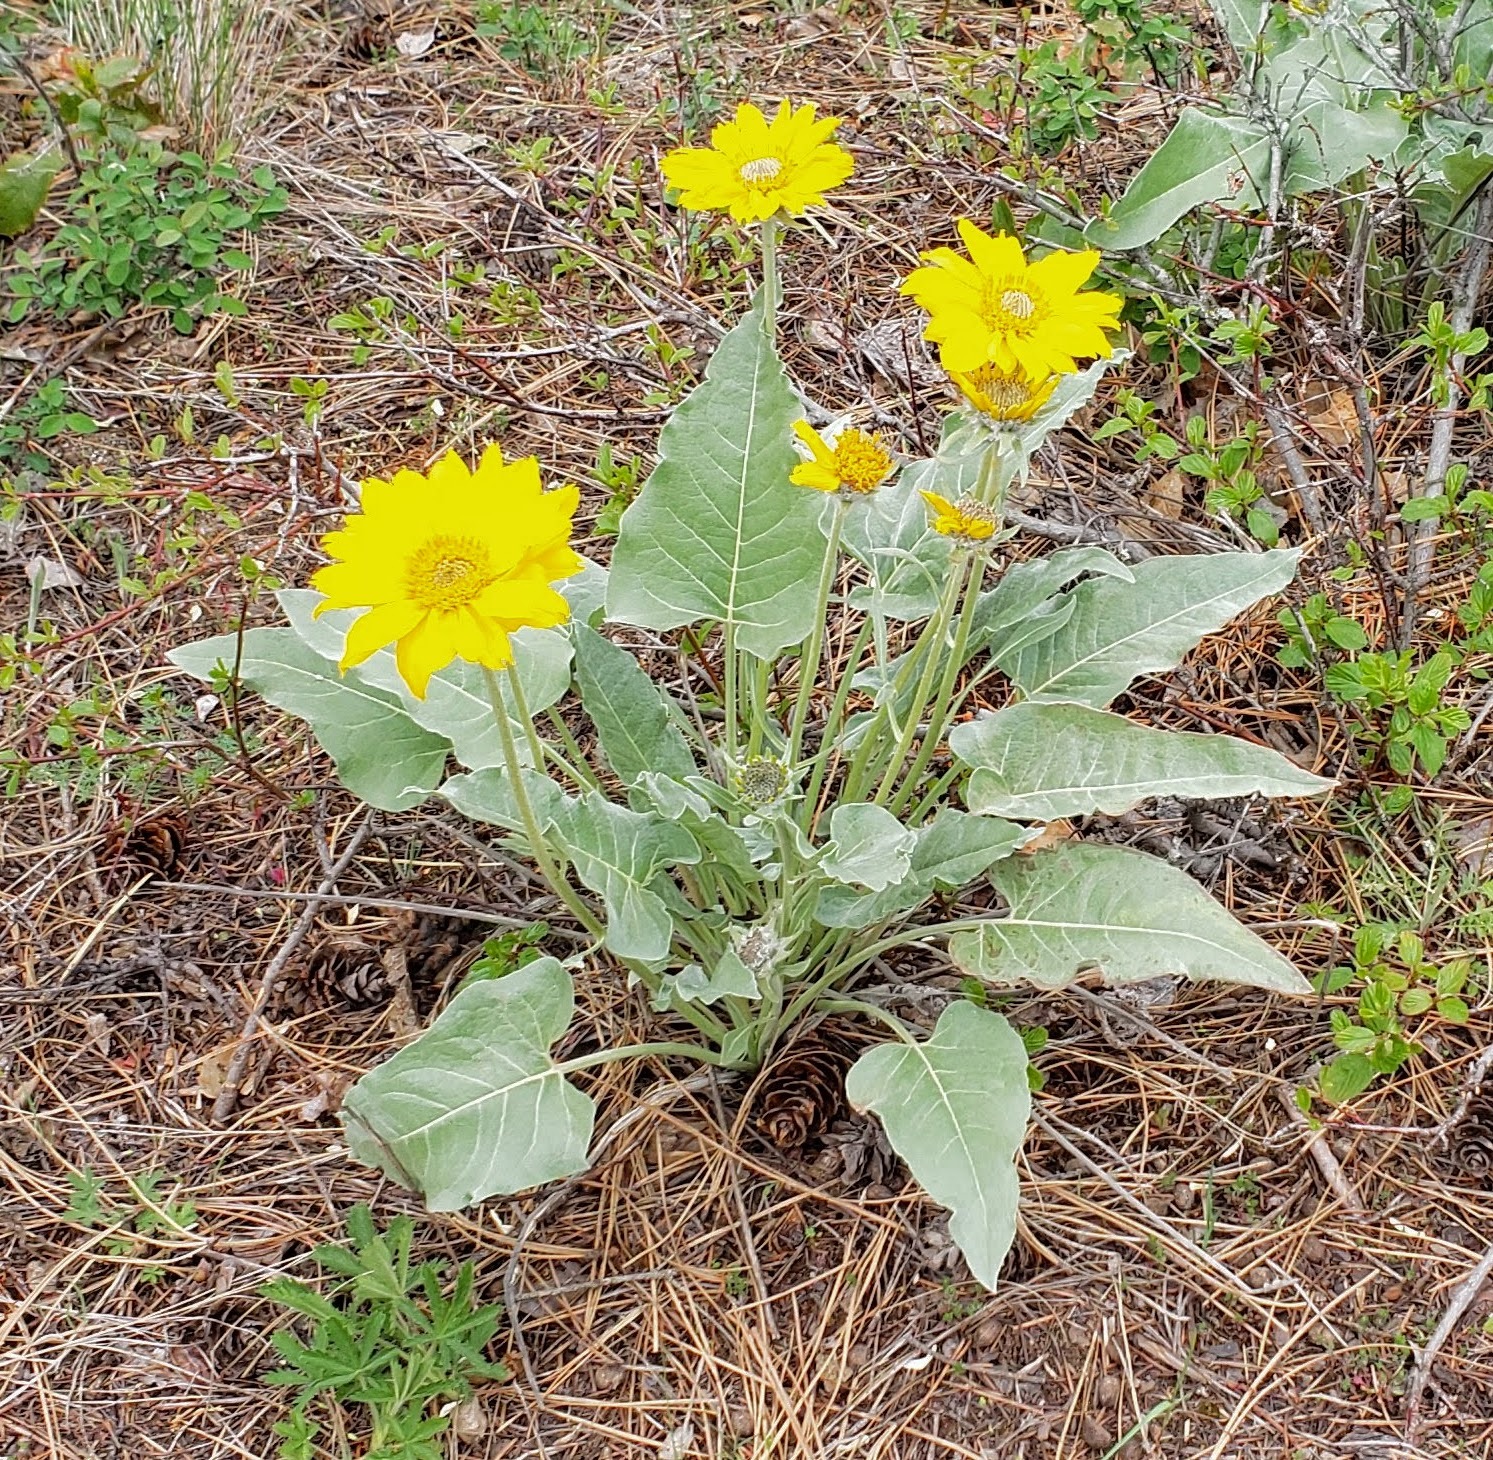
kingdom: Plantae
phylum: Tracheophyta
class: Magnoliopsida
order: Asterales
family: Asteraceae
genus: Wyethia
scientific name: Wyethia sagittata
